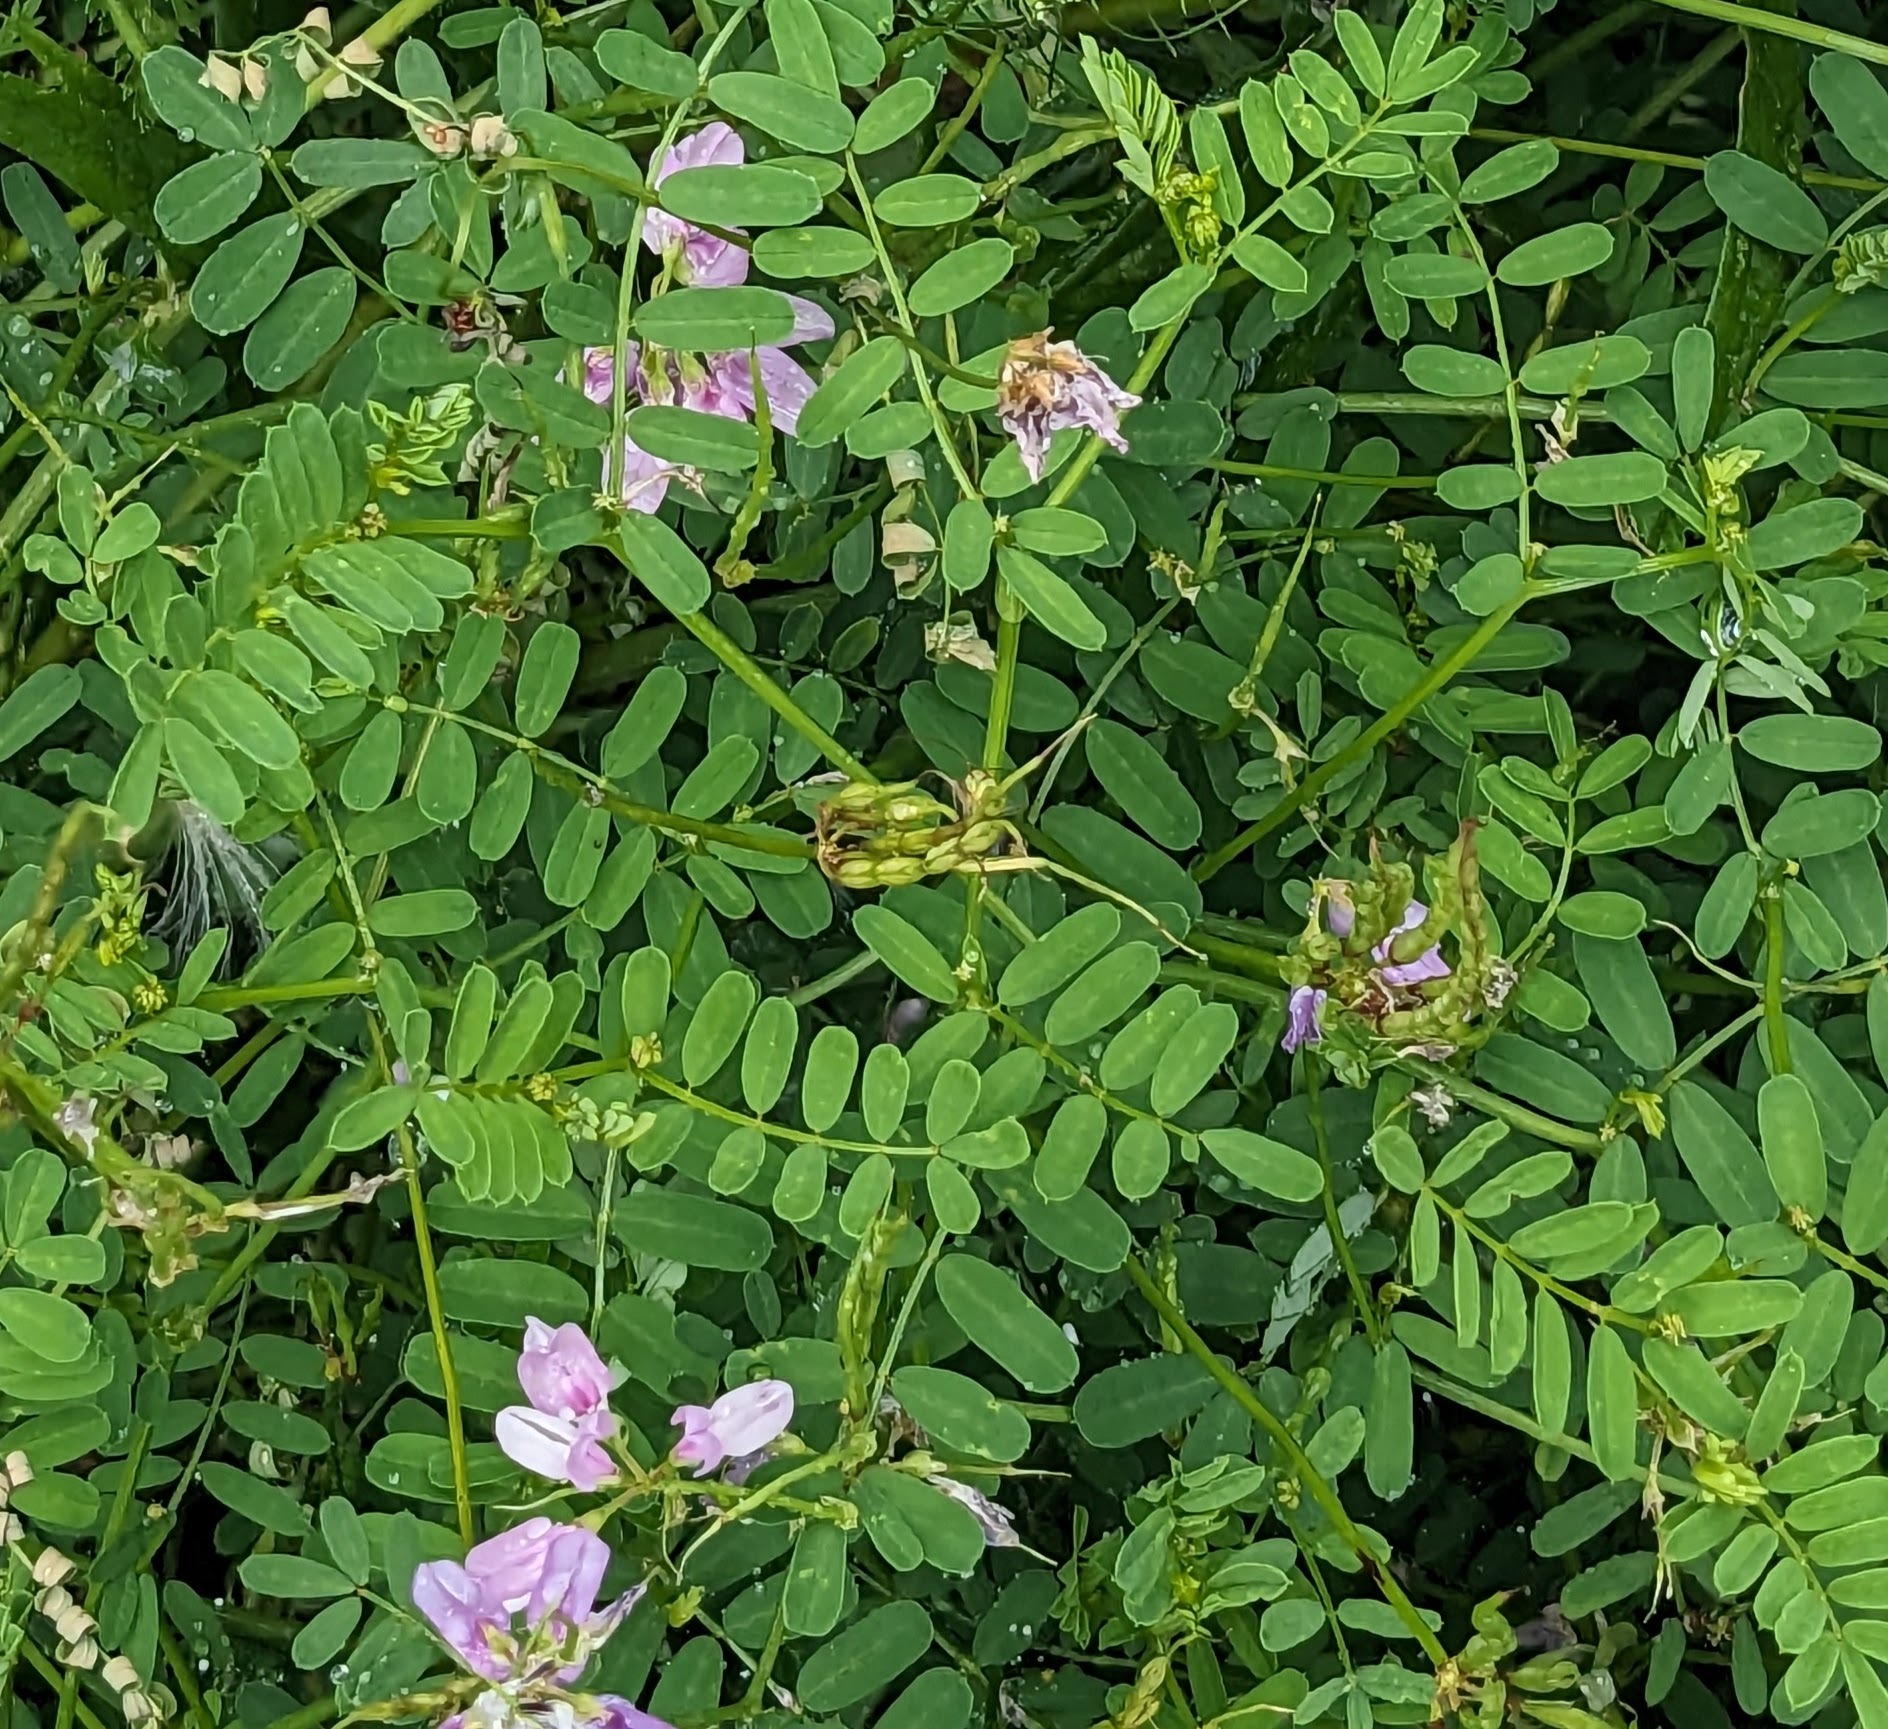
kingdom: Plantae
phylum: Tracheophyta
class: Magnoliopsida
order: Fabales
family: Fabaceae
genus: Coronilla
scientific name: Coronilla varia
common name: Crownvetch
